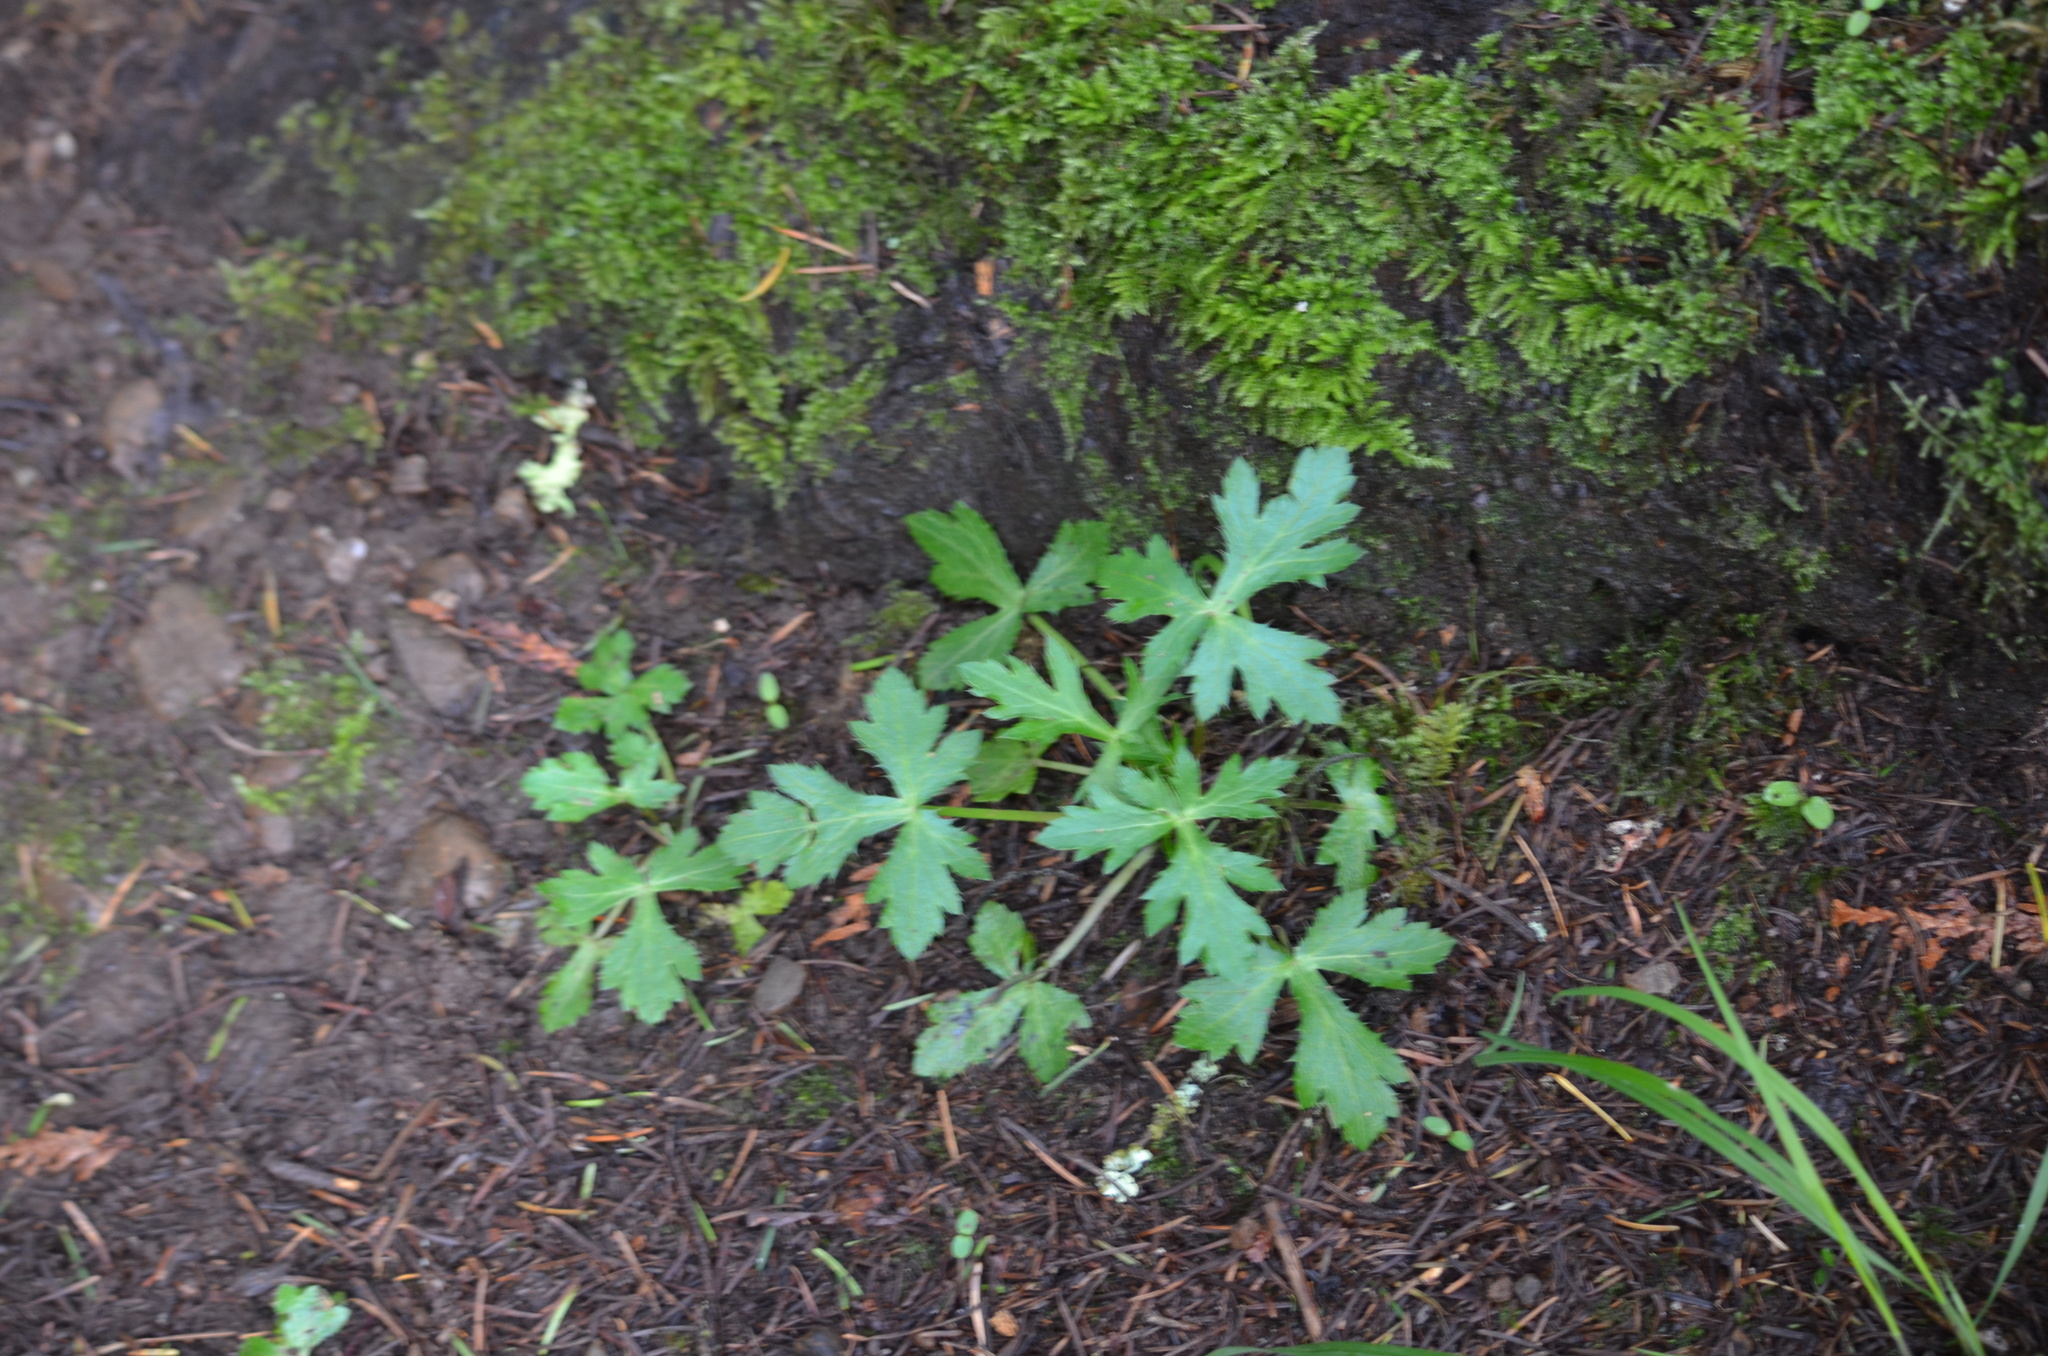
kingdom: Plantae
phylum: Tracheophyta
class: Magnoliopsida
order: Apiales
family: Apiaceae
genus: Sanicula
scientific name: Sanicula crassicaulis
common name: Western snakeroot
